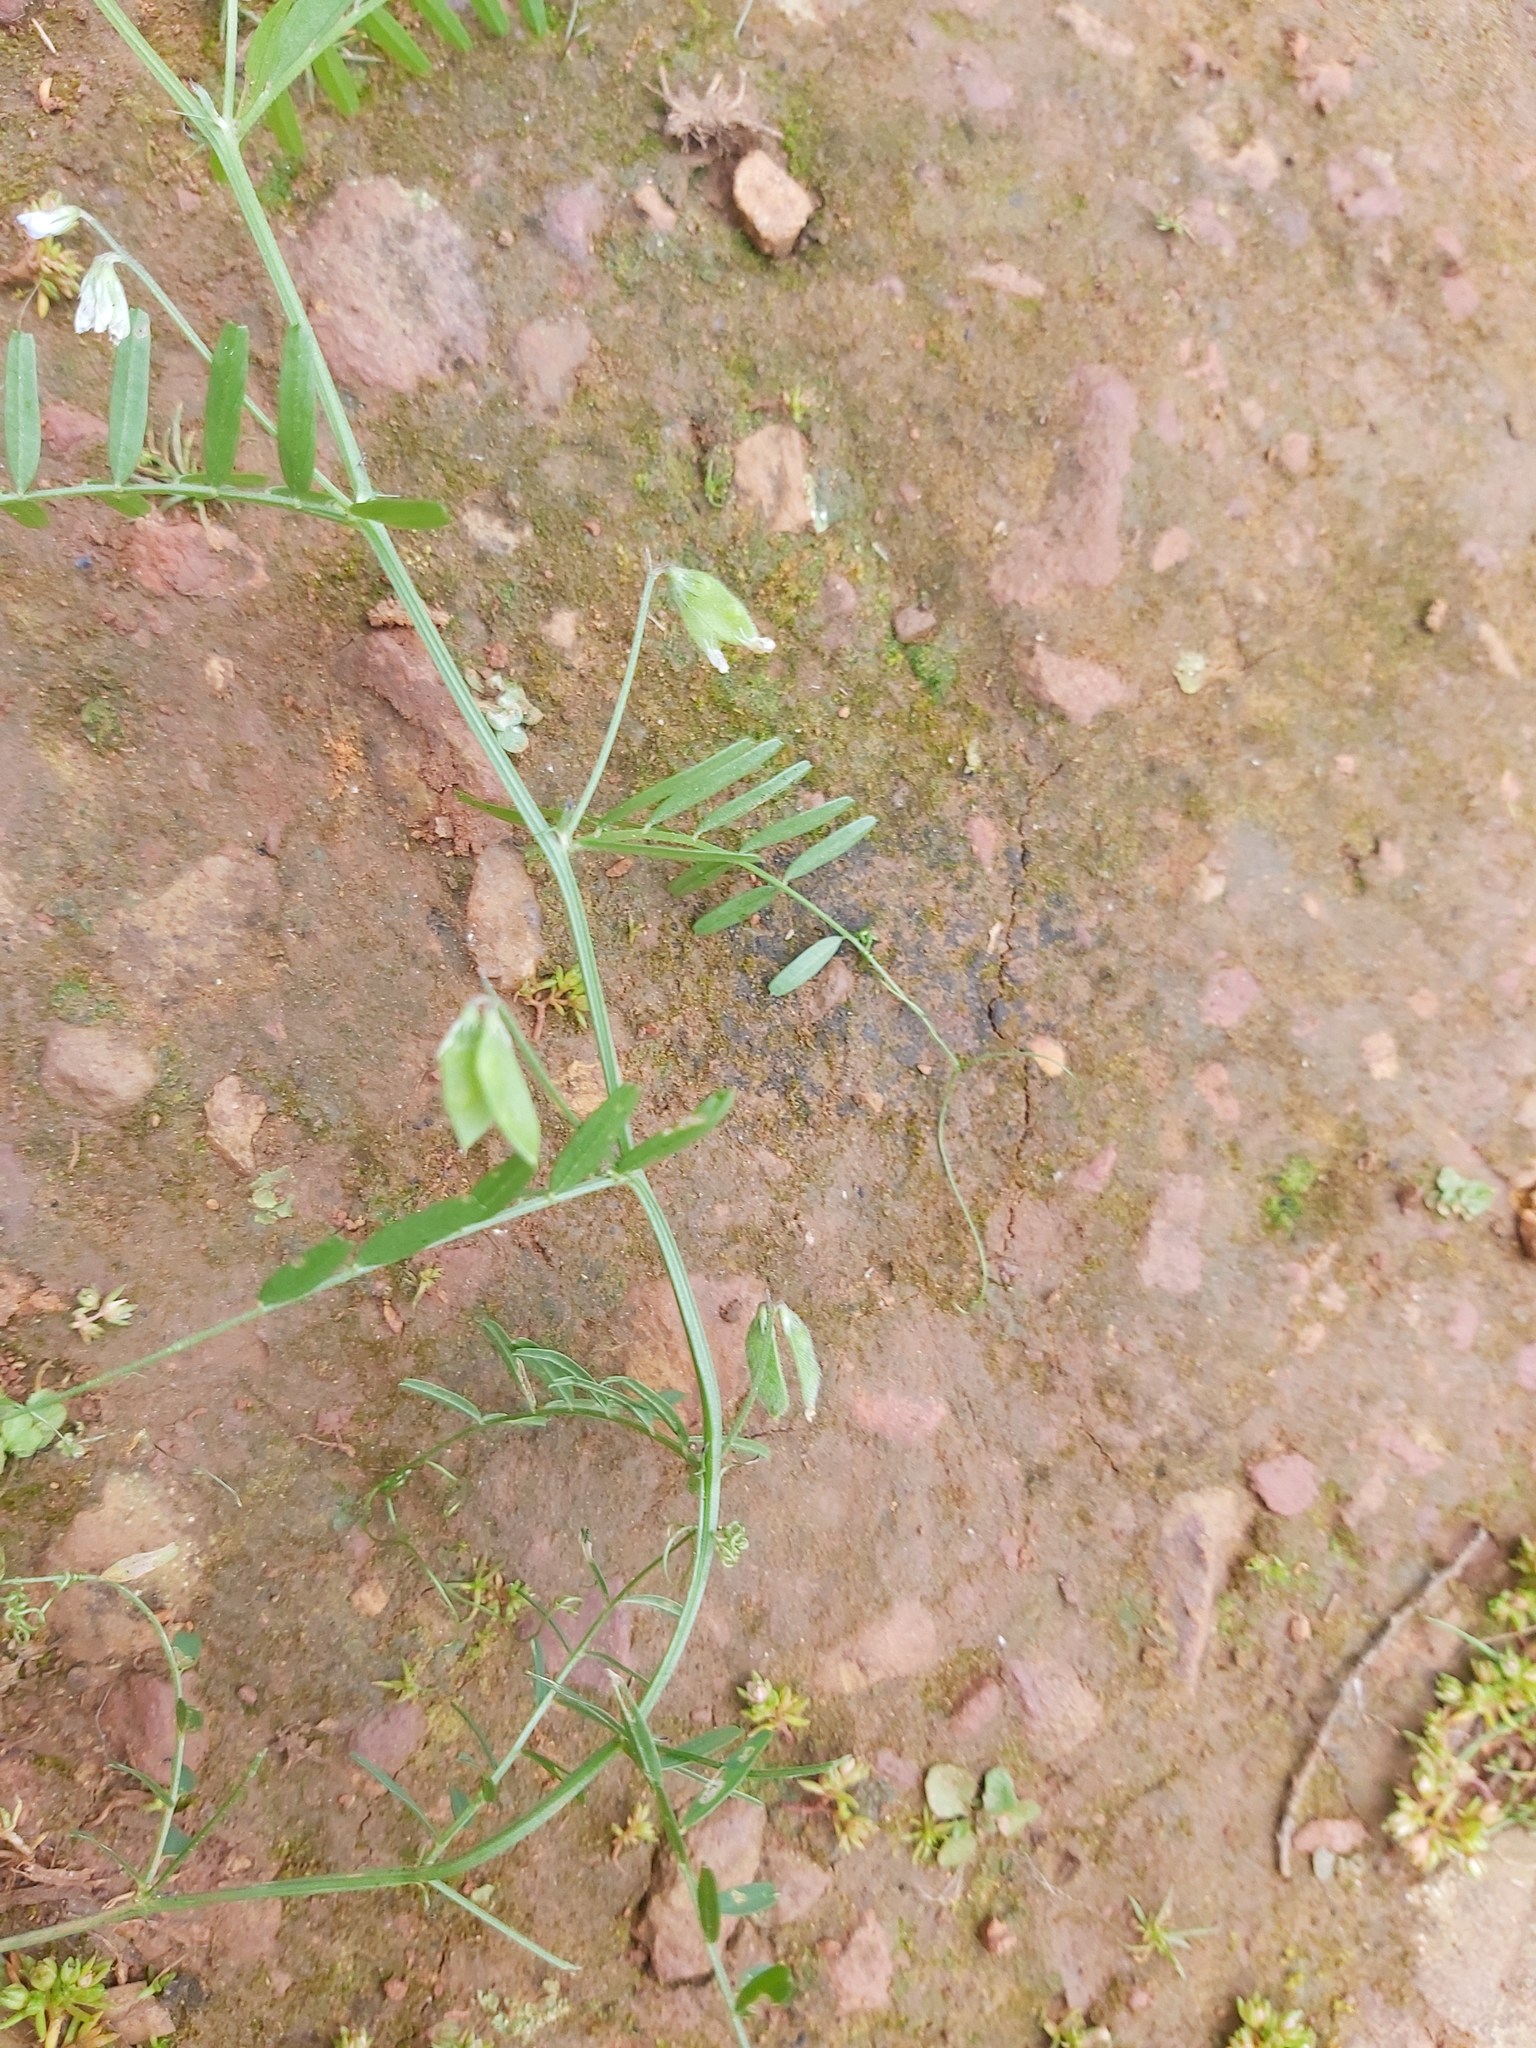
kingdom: Plantae
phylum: Tracheophyta
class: Magnoliopsida
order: Fabales
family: Fabaceae
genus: Vicia
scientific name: Vicia hirsuta
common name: Tiny vetch
